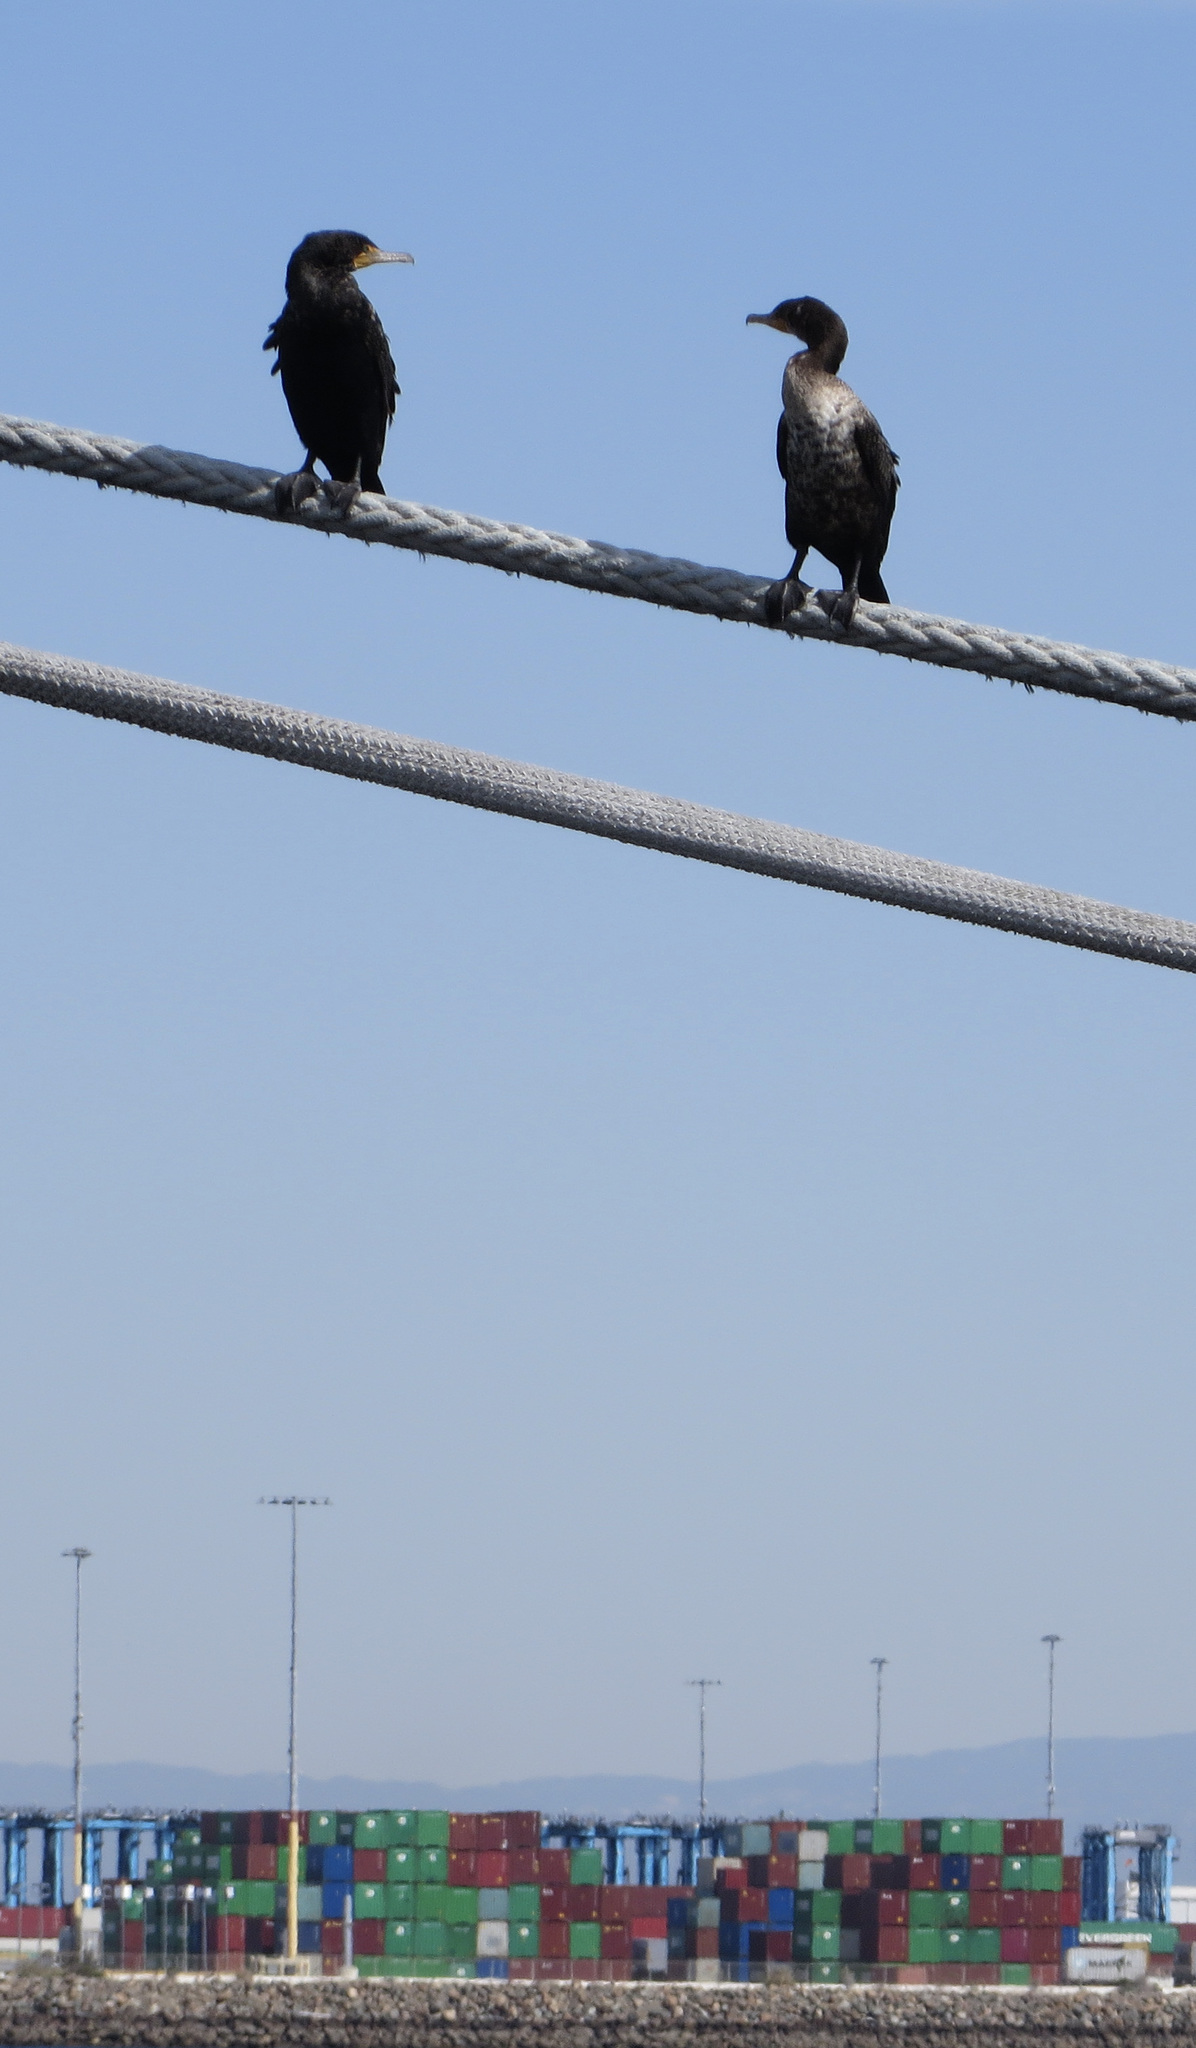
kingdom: Animalia
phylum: Chordata
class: Aves
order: Suliformes
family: Phalacrocoracidae
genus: Phalacrocorax
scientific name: Phalacrocorax auritus
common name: Double-crested cormorant
